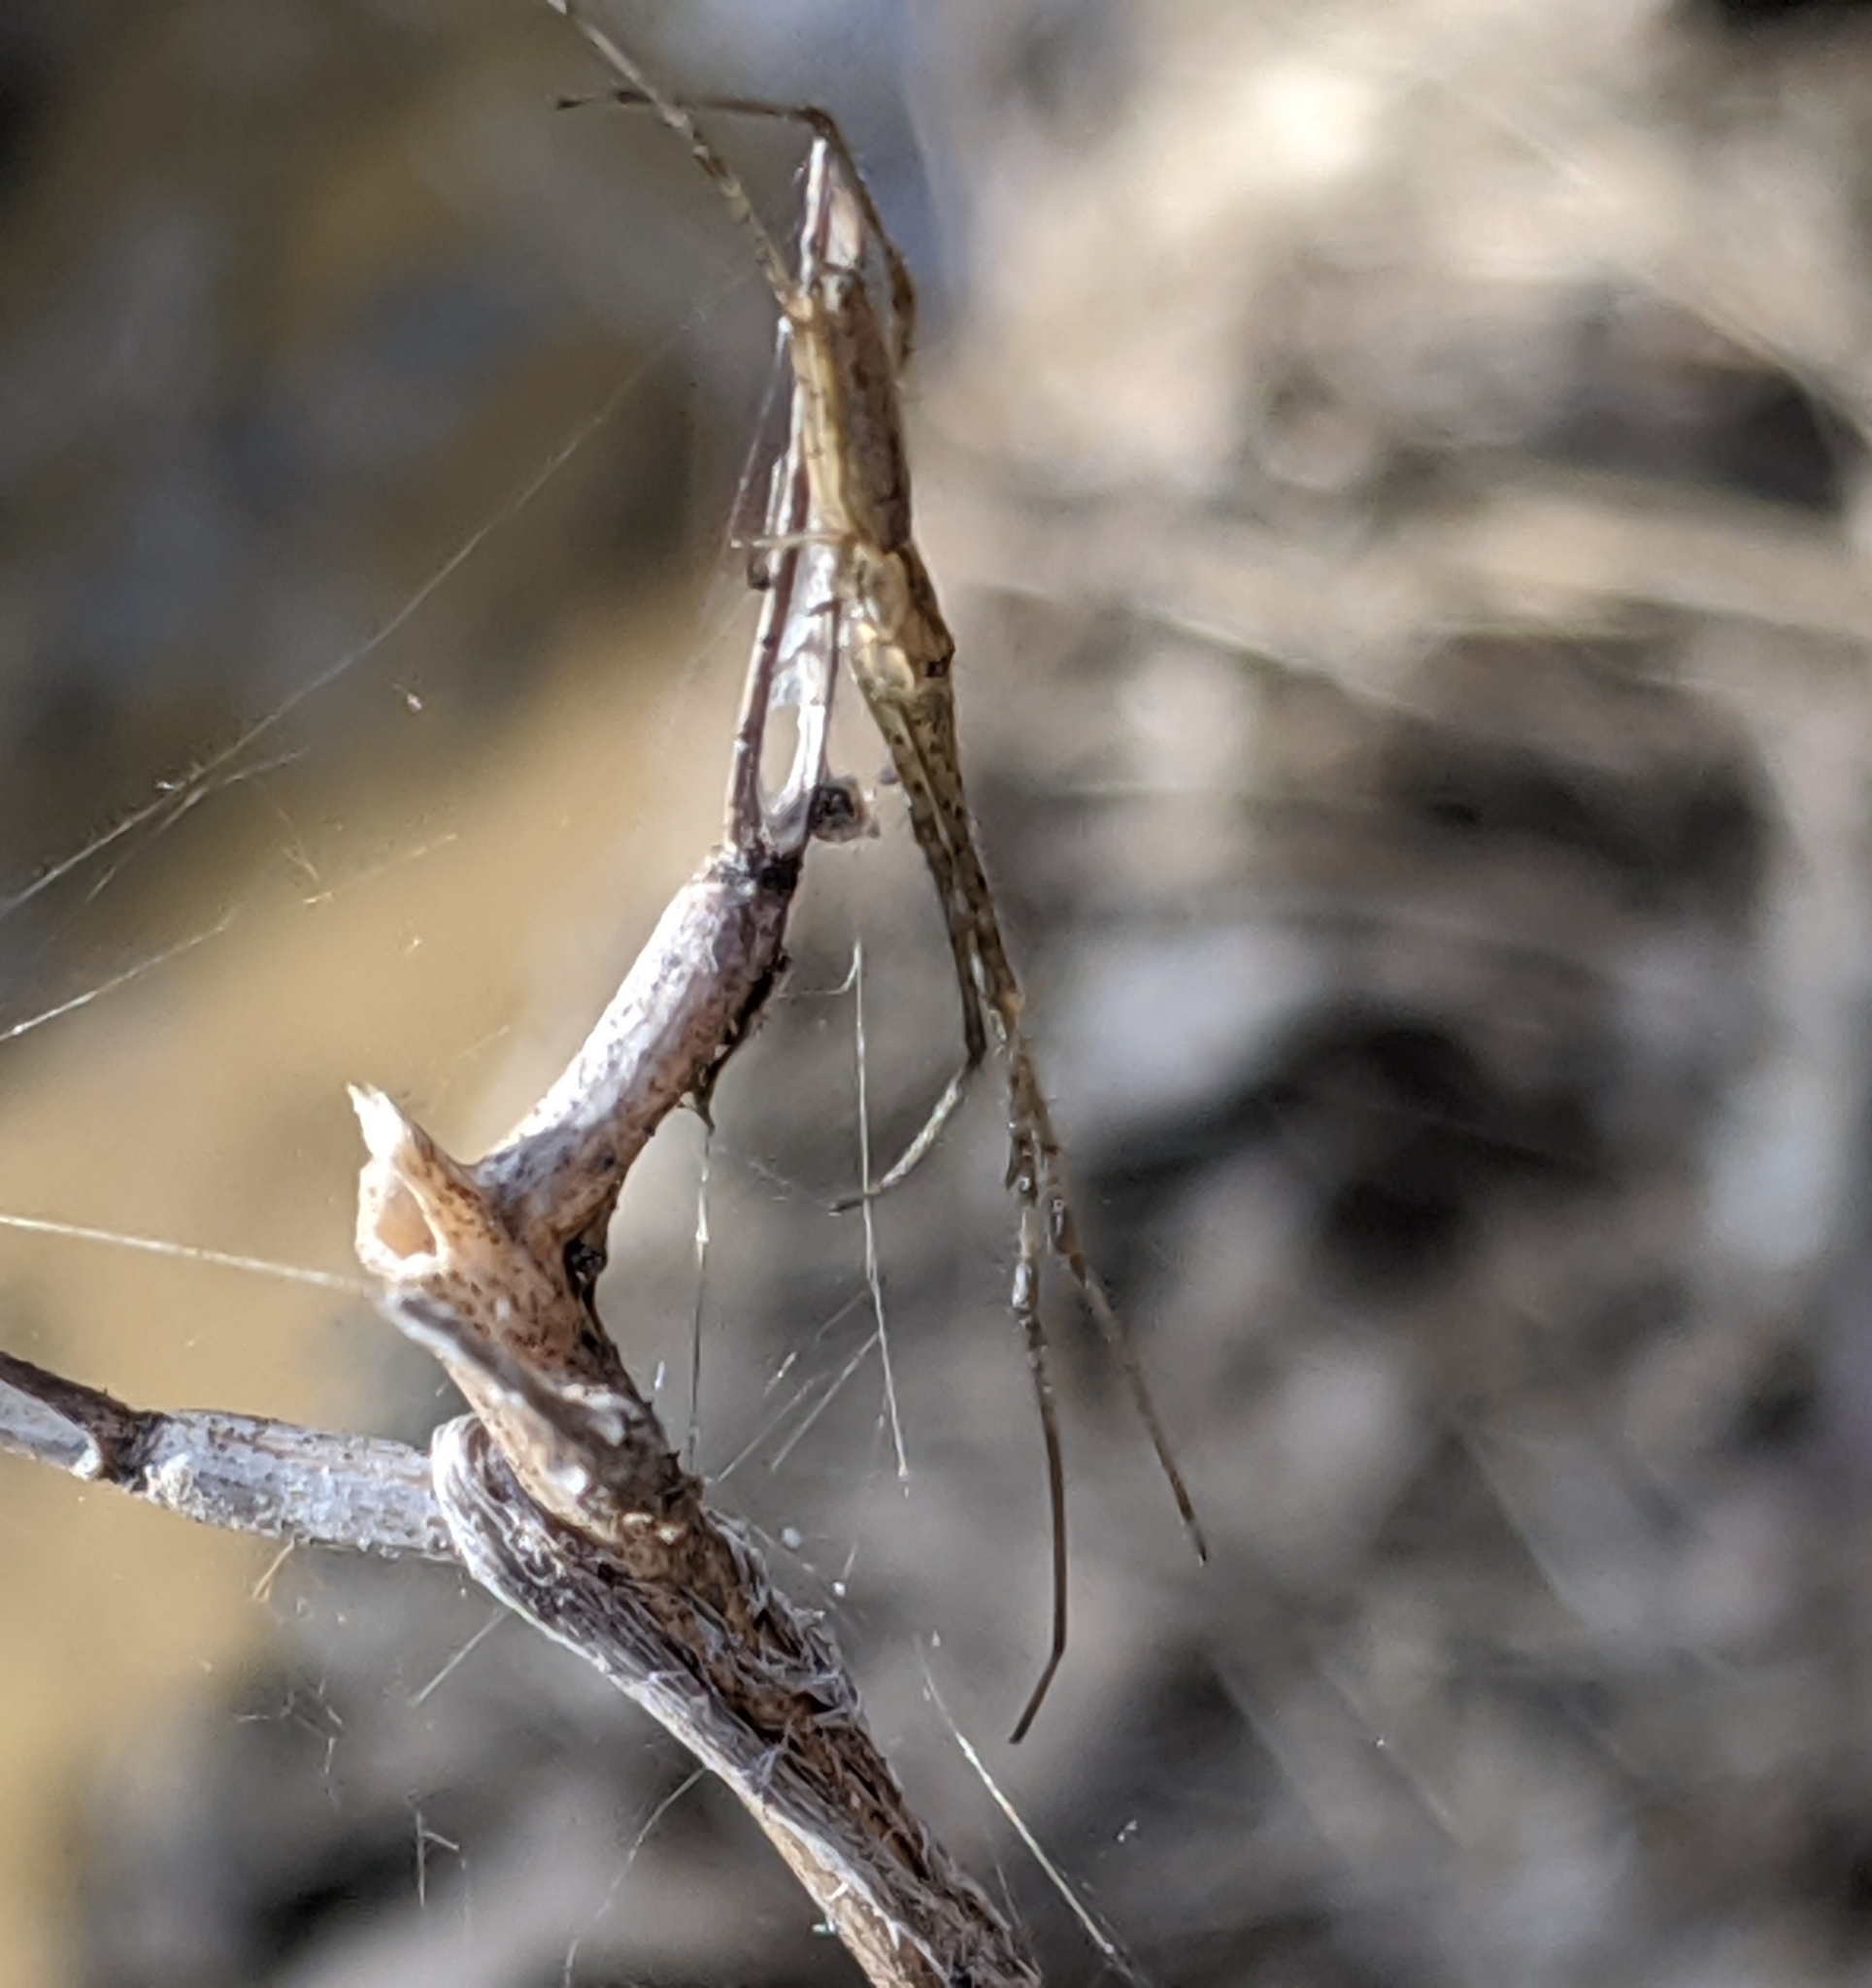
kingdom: Animalia
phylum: Arthropoda
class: Arachnida
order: Araneae
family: Tetragnathidae
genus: Tetragnatha
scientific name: Tetragnatha
